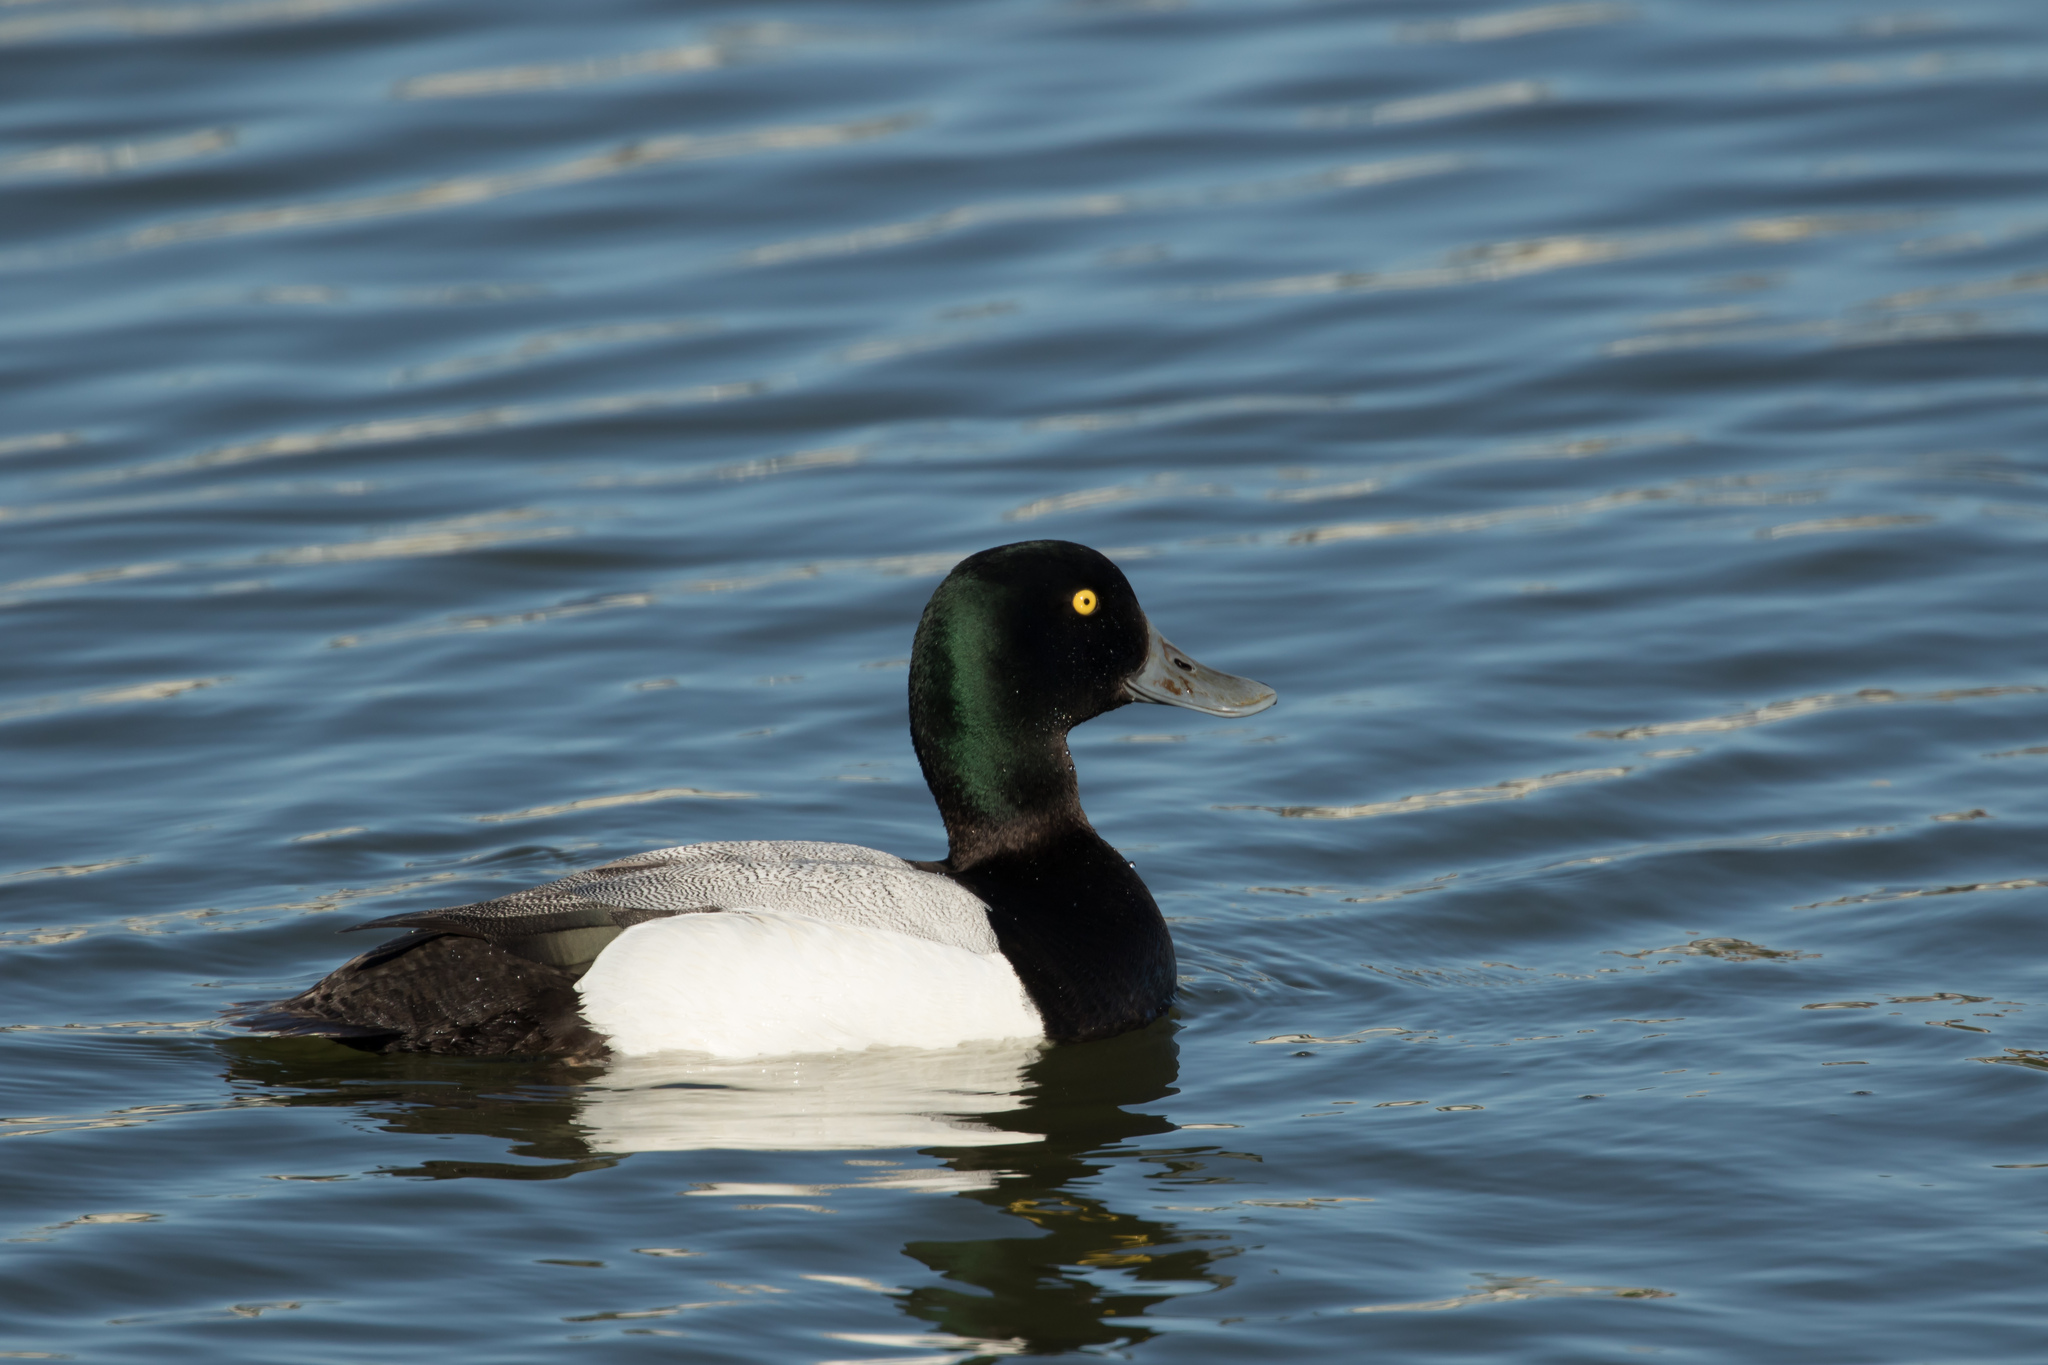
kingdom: Animalia
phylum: Chordata
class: Aves
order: Anseriformes
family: Anatidae
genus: Aythya
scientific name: Aythya marila
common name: Greater scaup
